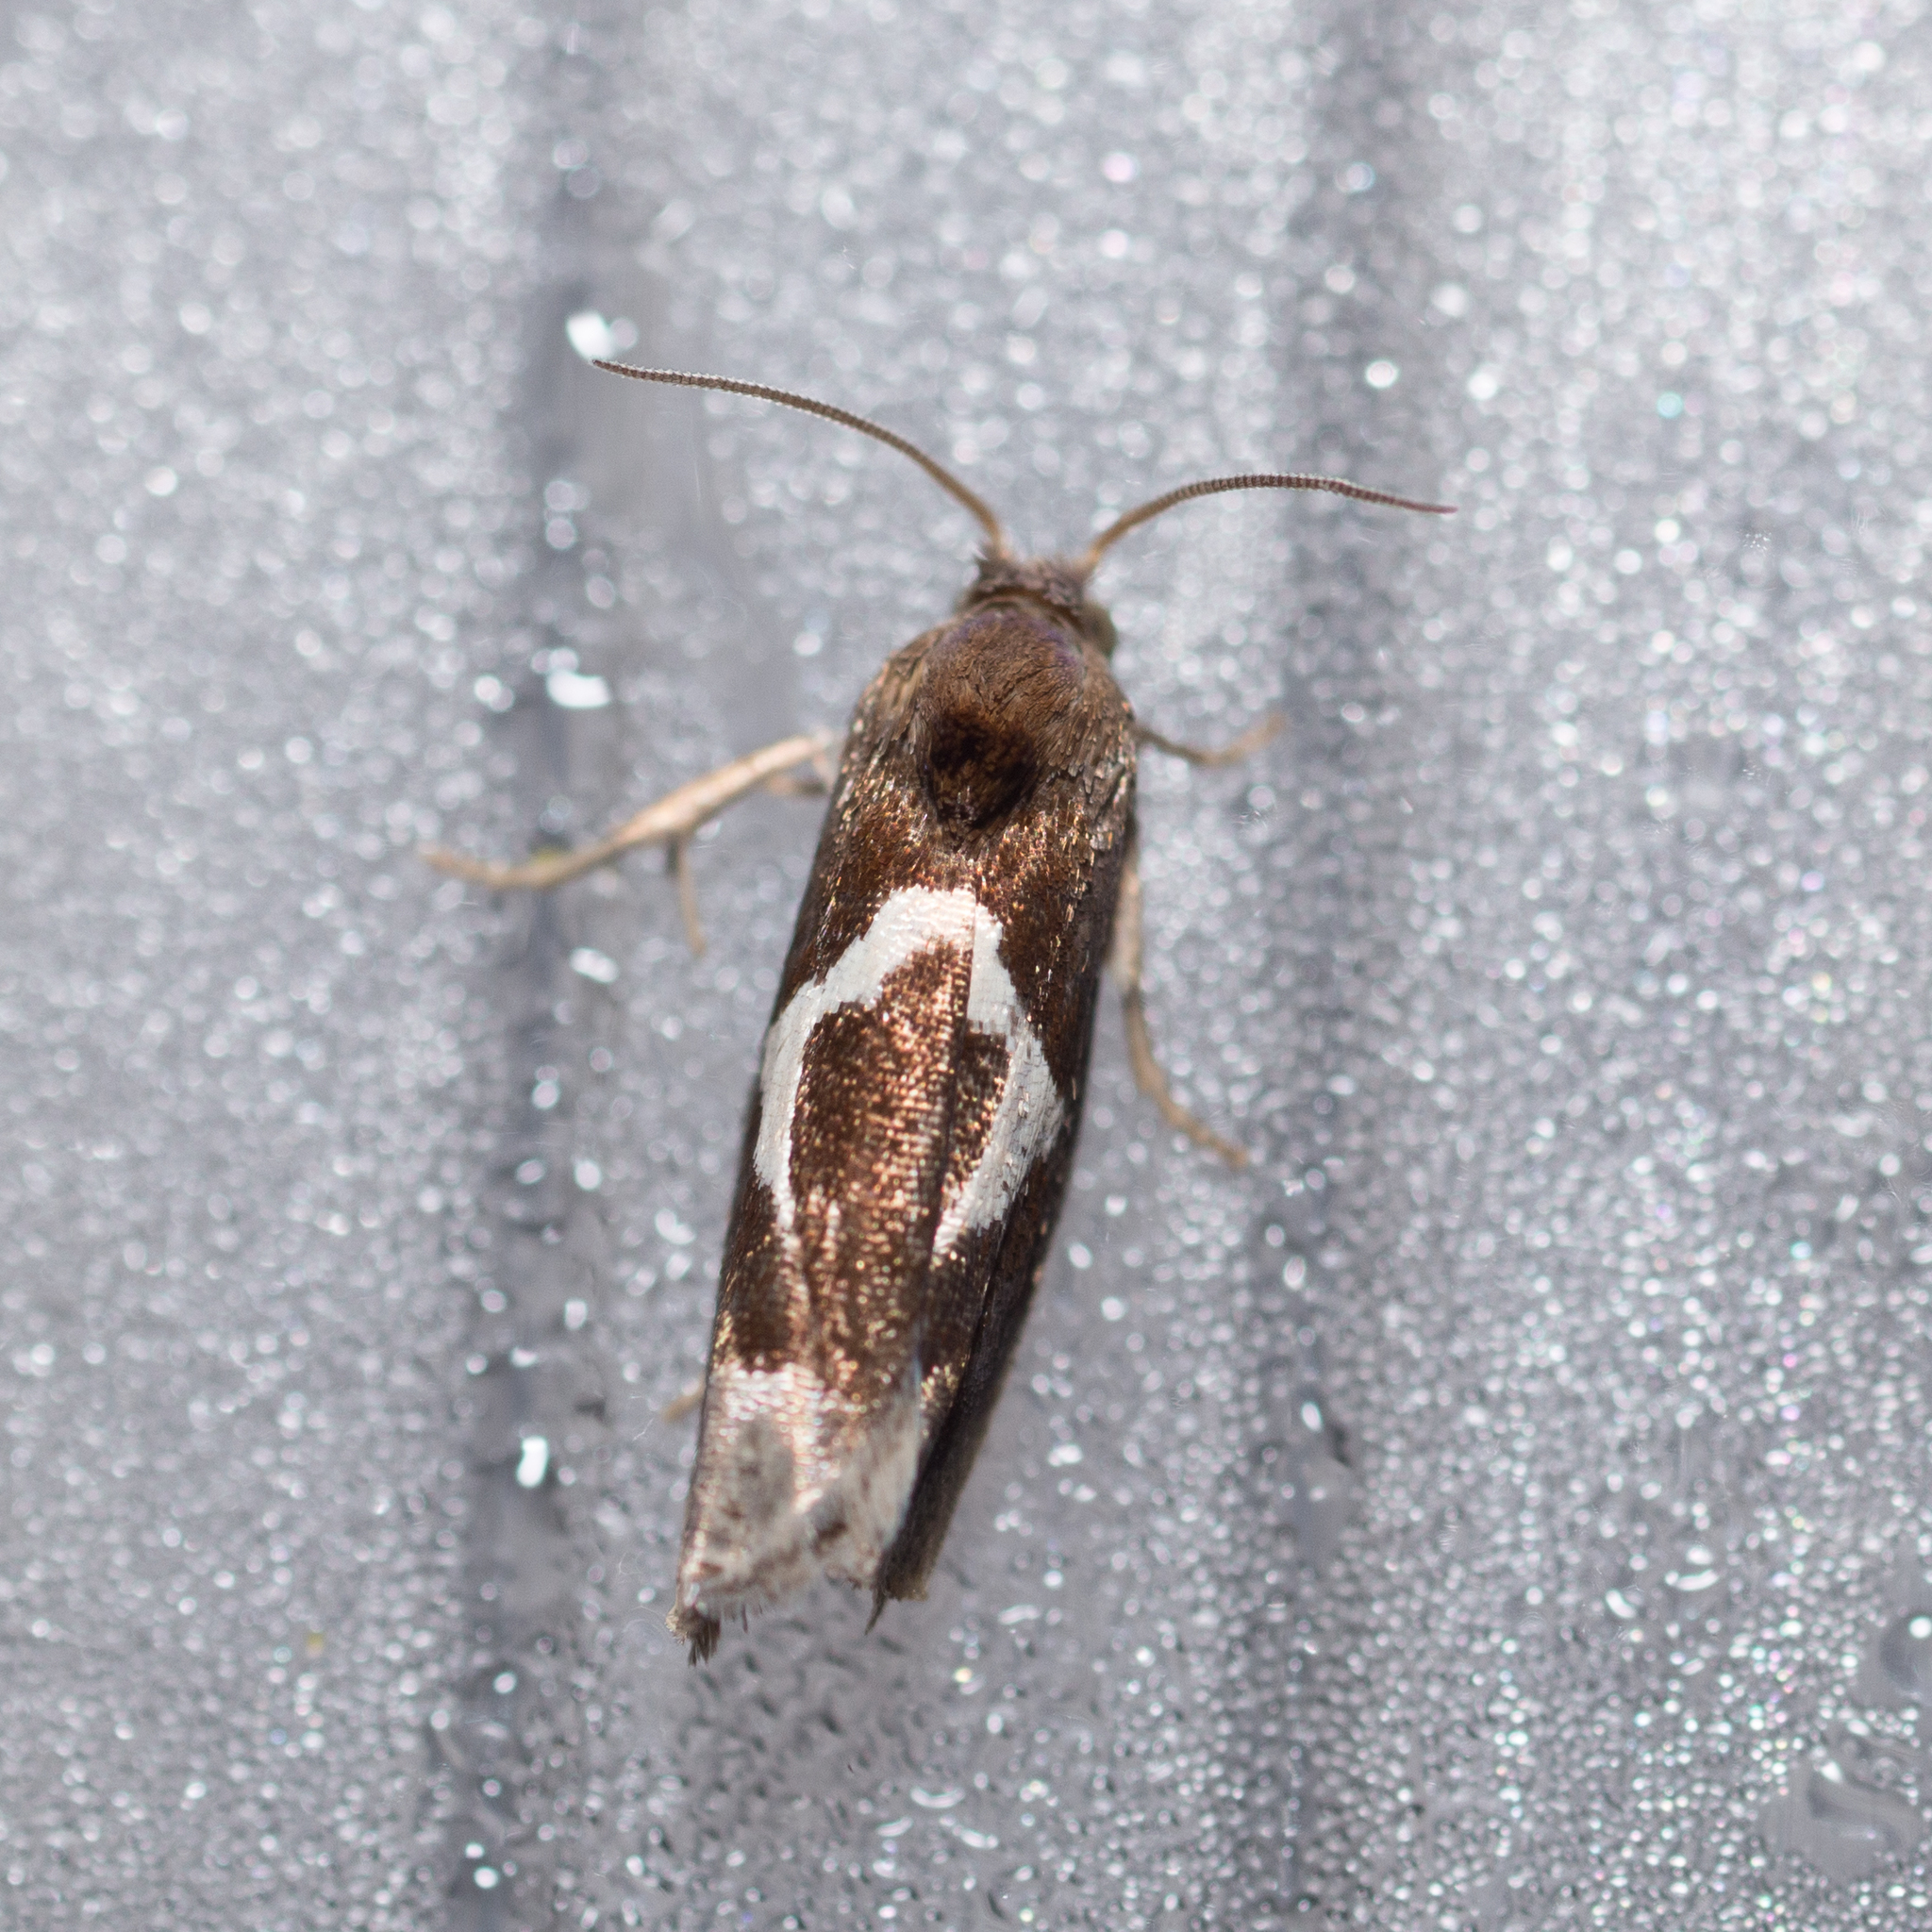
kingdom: Animalia
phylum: Arthropoda
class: Insecta
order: Lepidoptera
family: Tortricidae
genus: Epiblema
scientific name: Epiblema foenella
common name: White-foot bell
